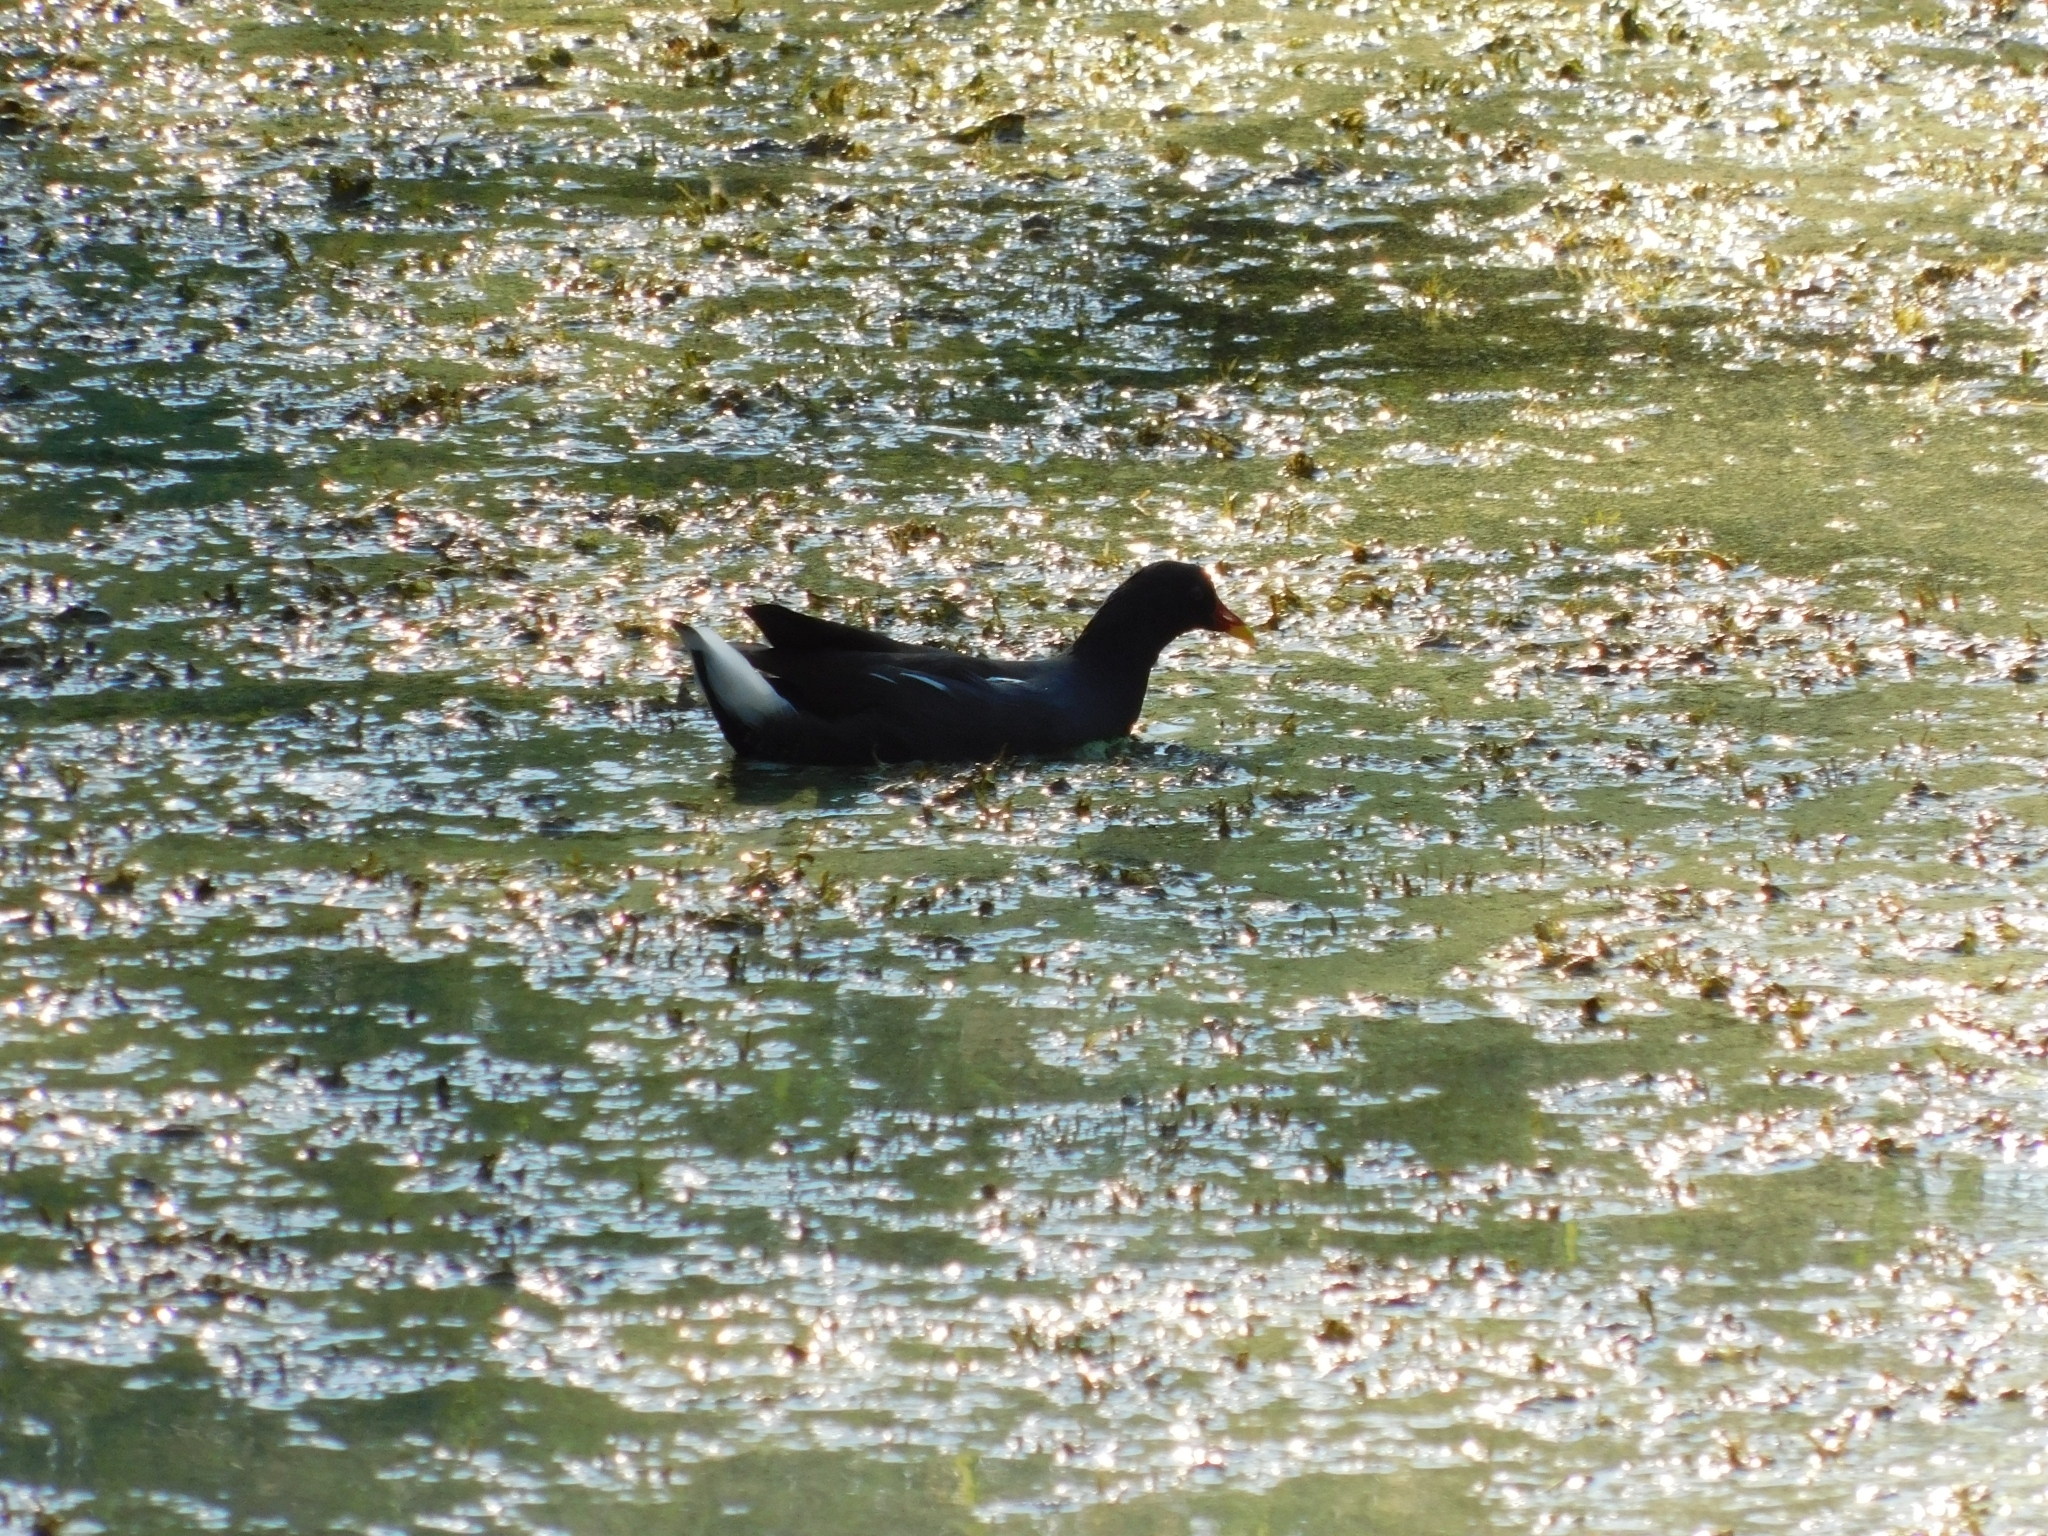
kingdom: Animalia
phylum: Chordata
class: Aves
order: Gruiformes
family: Rallidae
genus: Gallinula
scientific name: Gallinula chloropus
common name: Common moorhen
